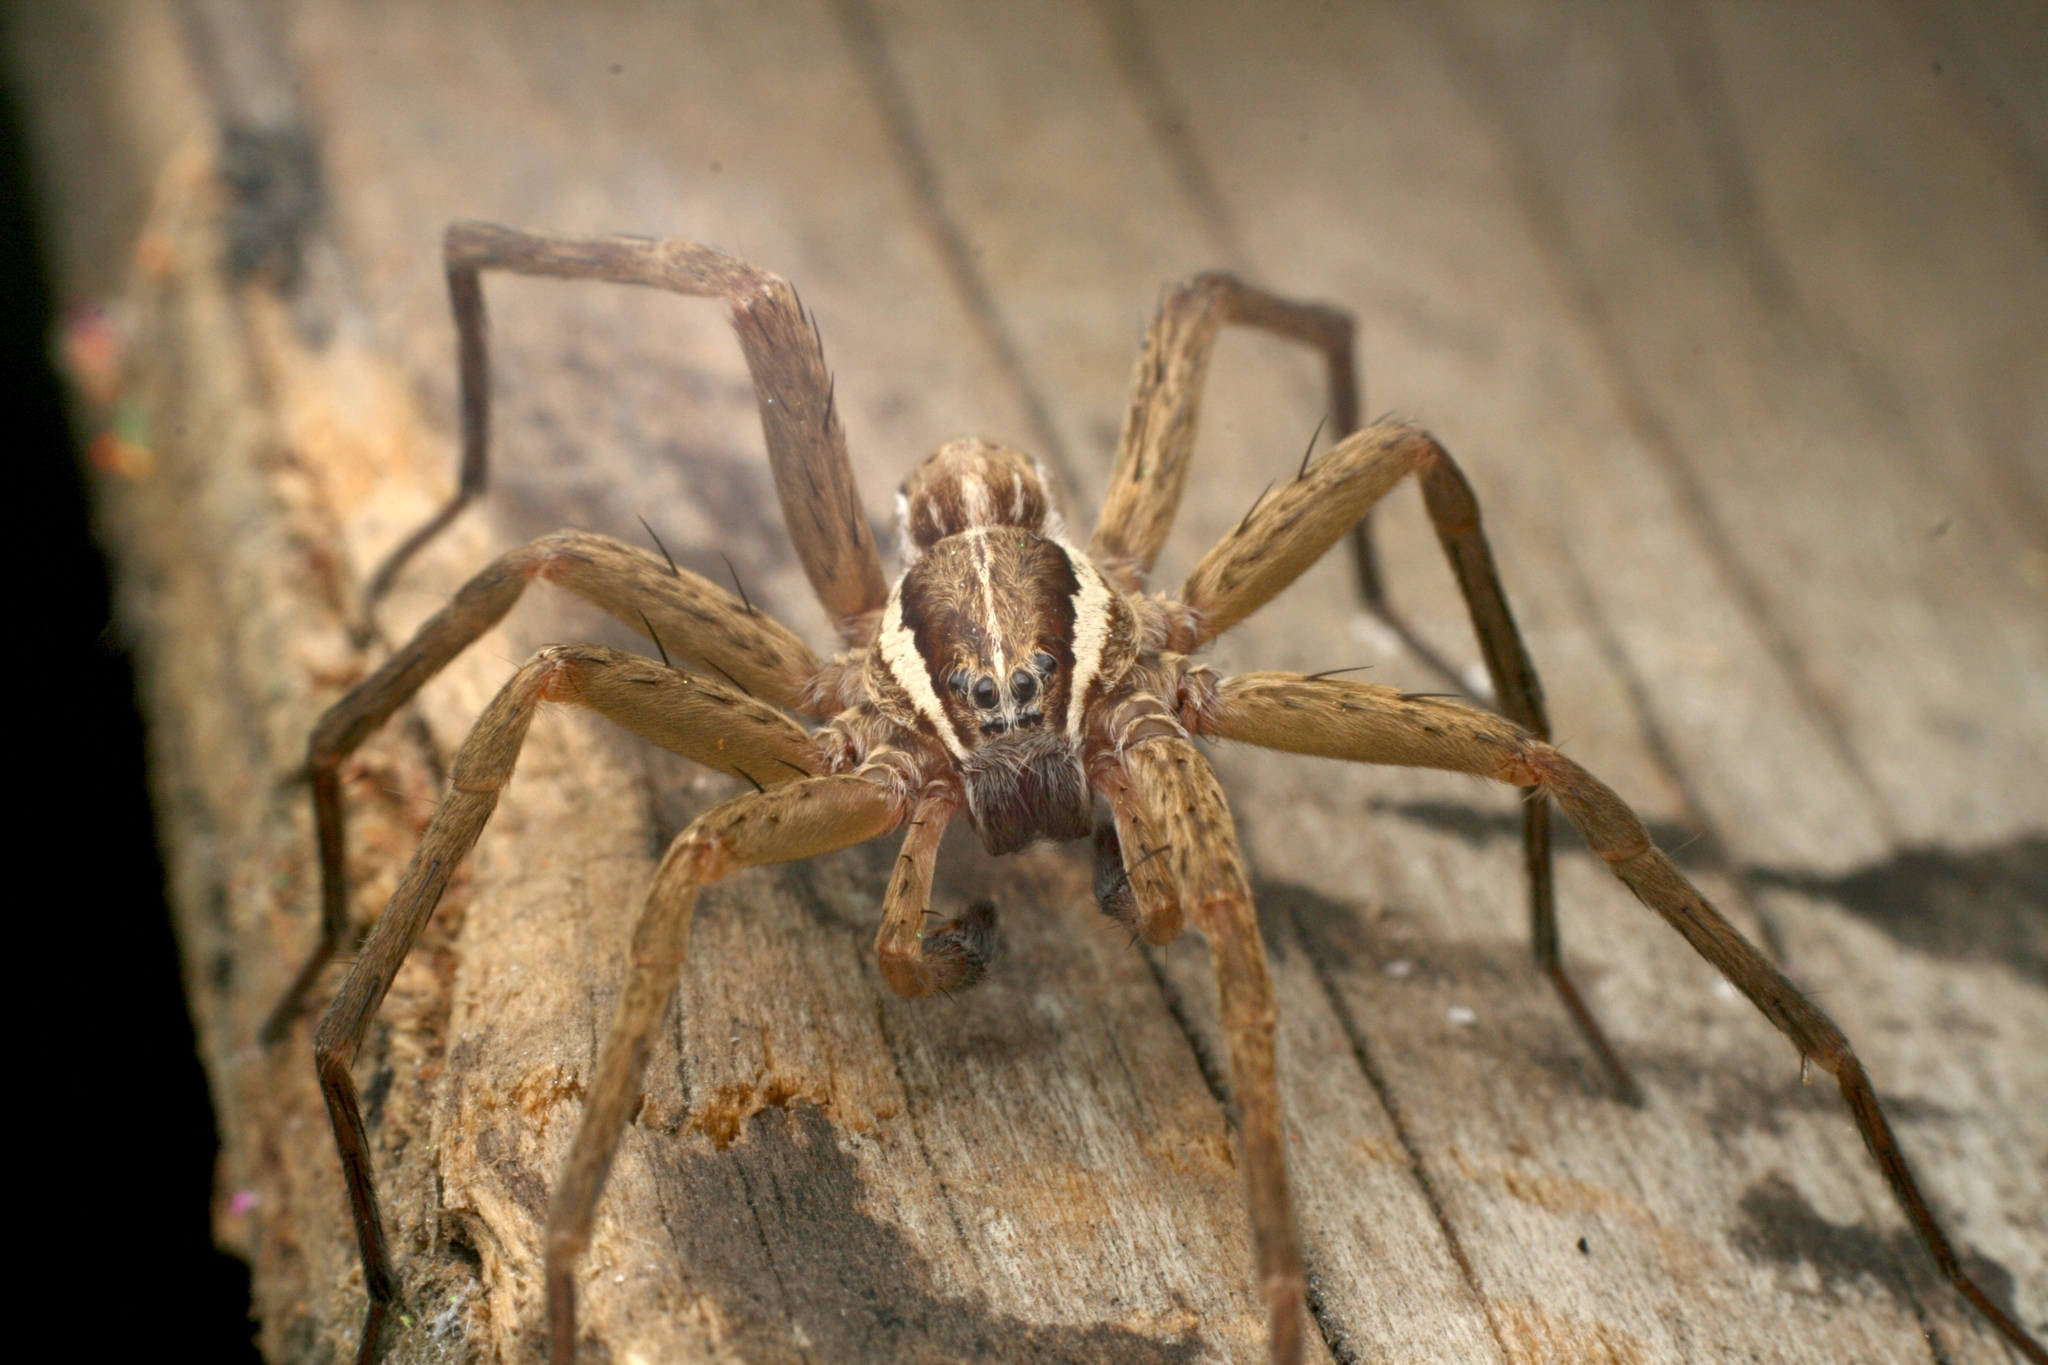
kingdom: Animalia
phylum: Arthropoda
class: Arachnida
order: Araneae
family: Pisauridae
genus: Dolomedes
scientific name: Dolomedes minor
